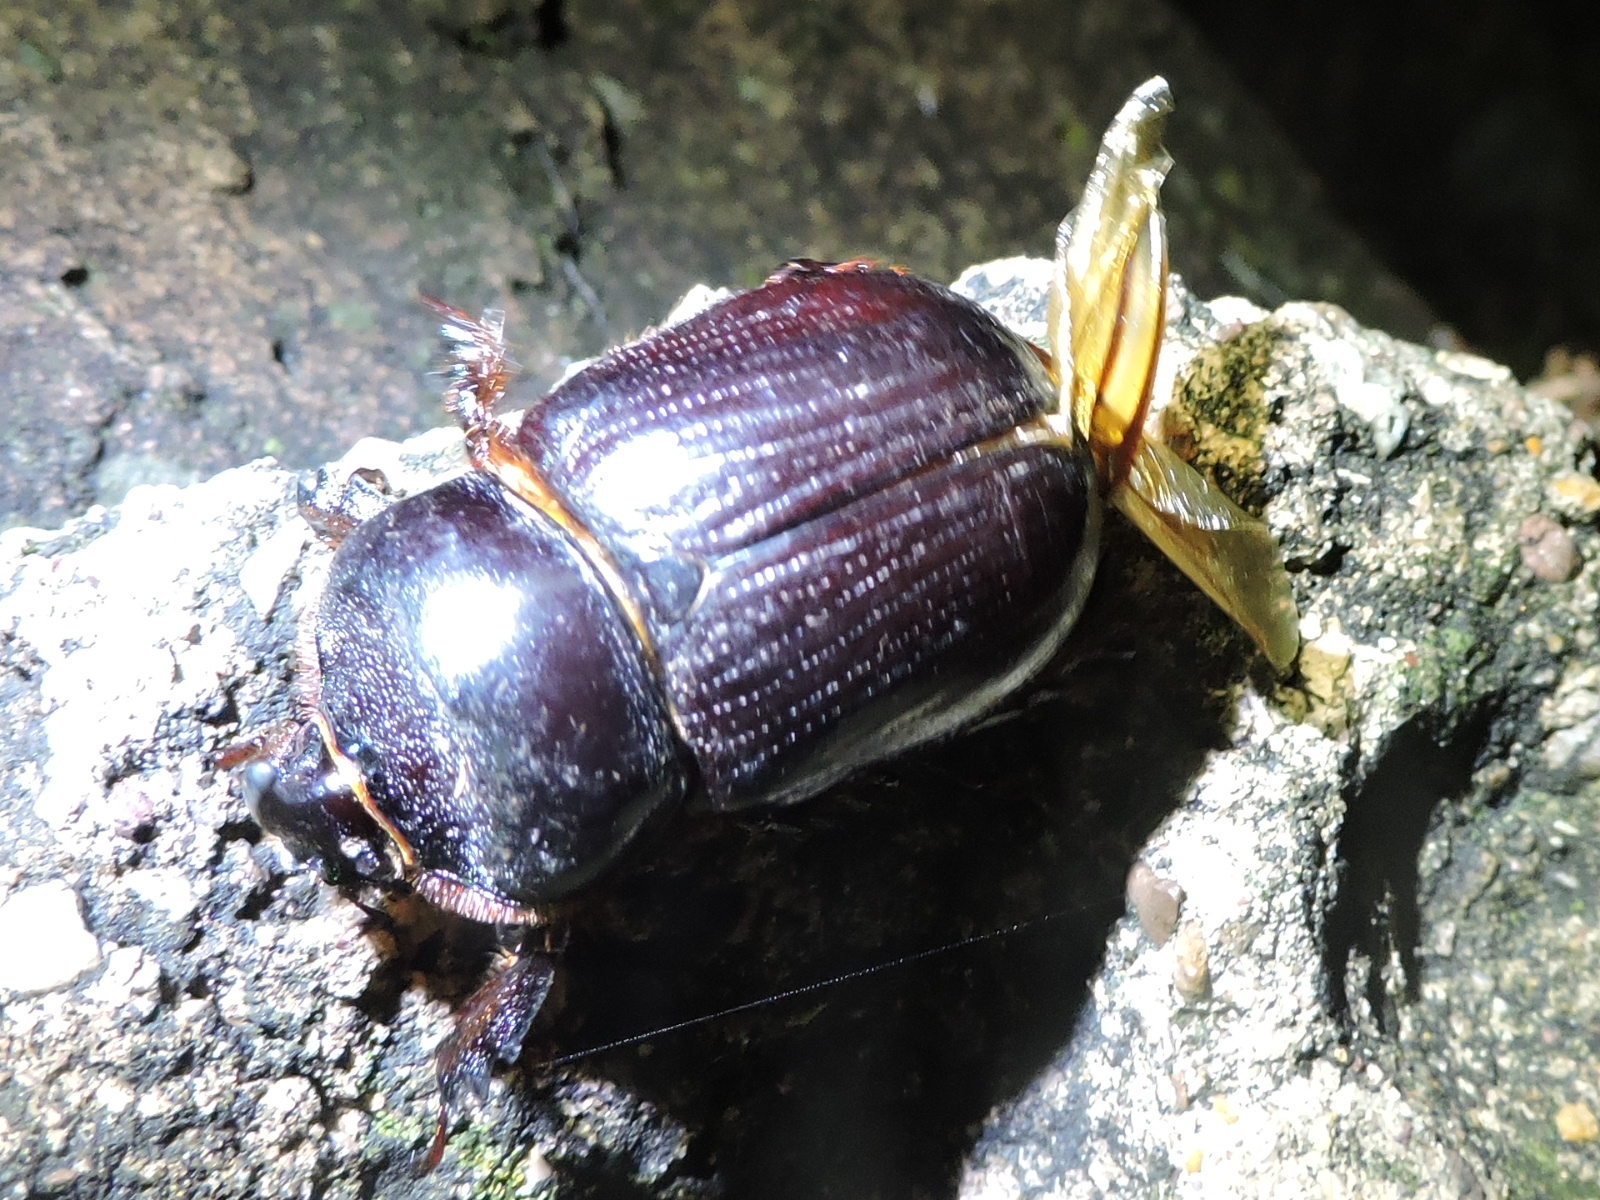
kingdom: Animalia
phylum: Arthropoda
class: Insecta
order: Coleoptera
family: Scarabaeidae
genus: Xyloryctes
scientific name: Xyloryctes thestalus
